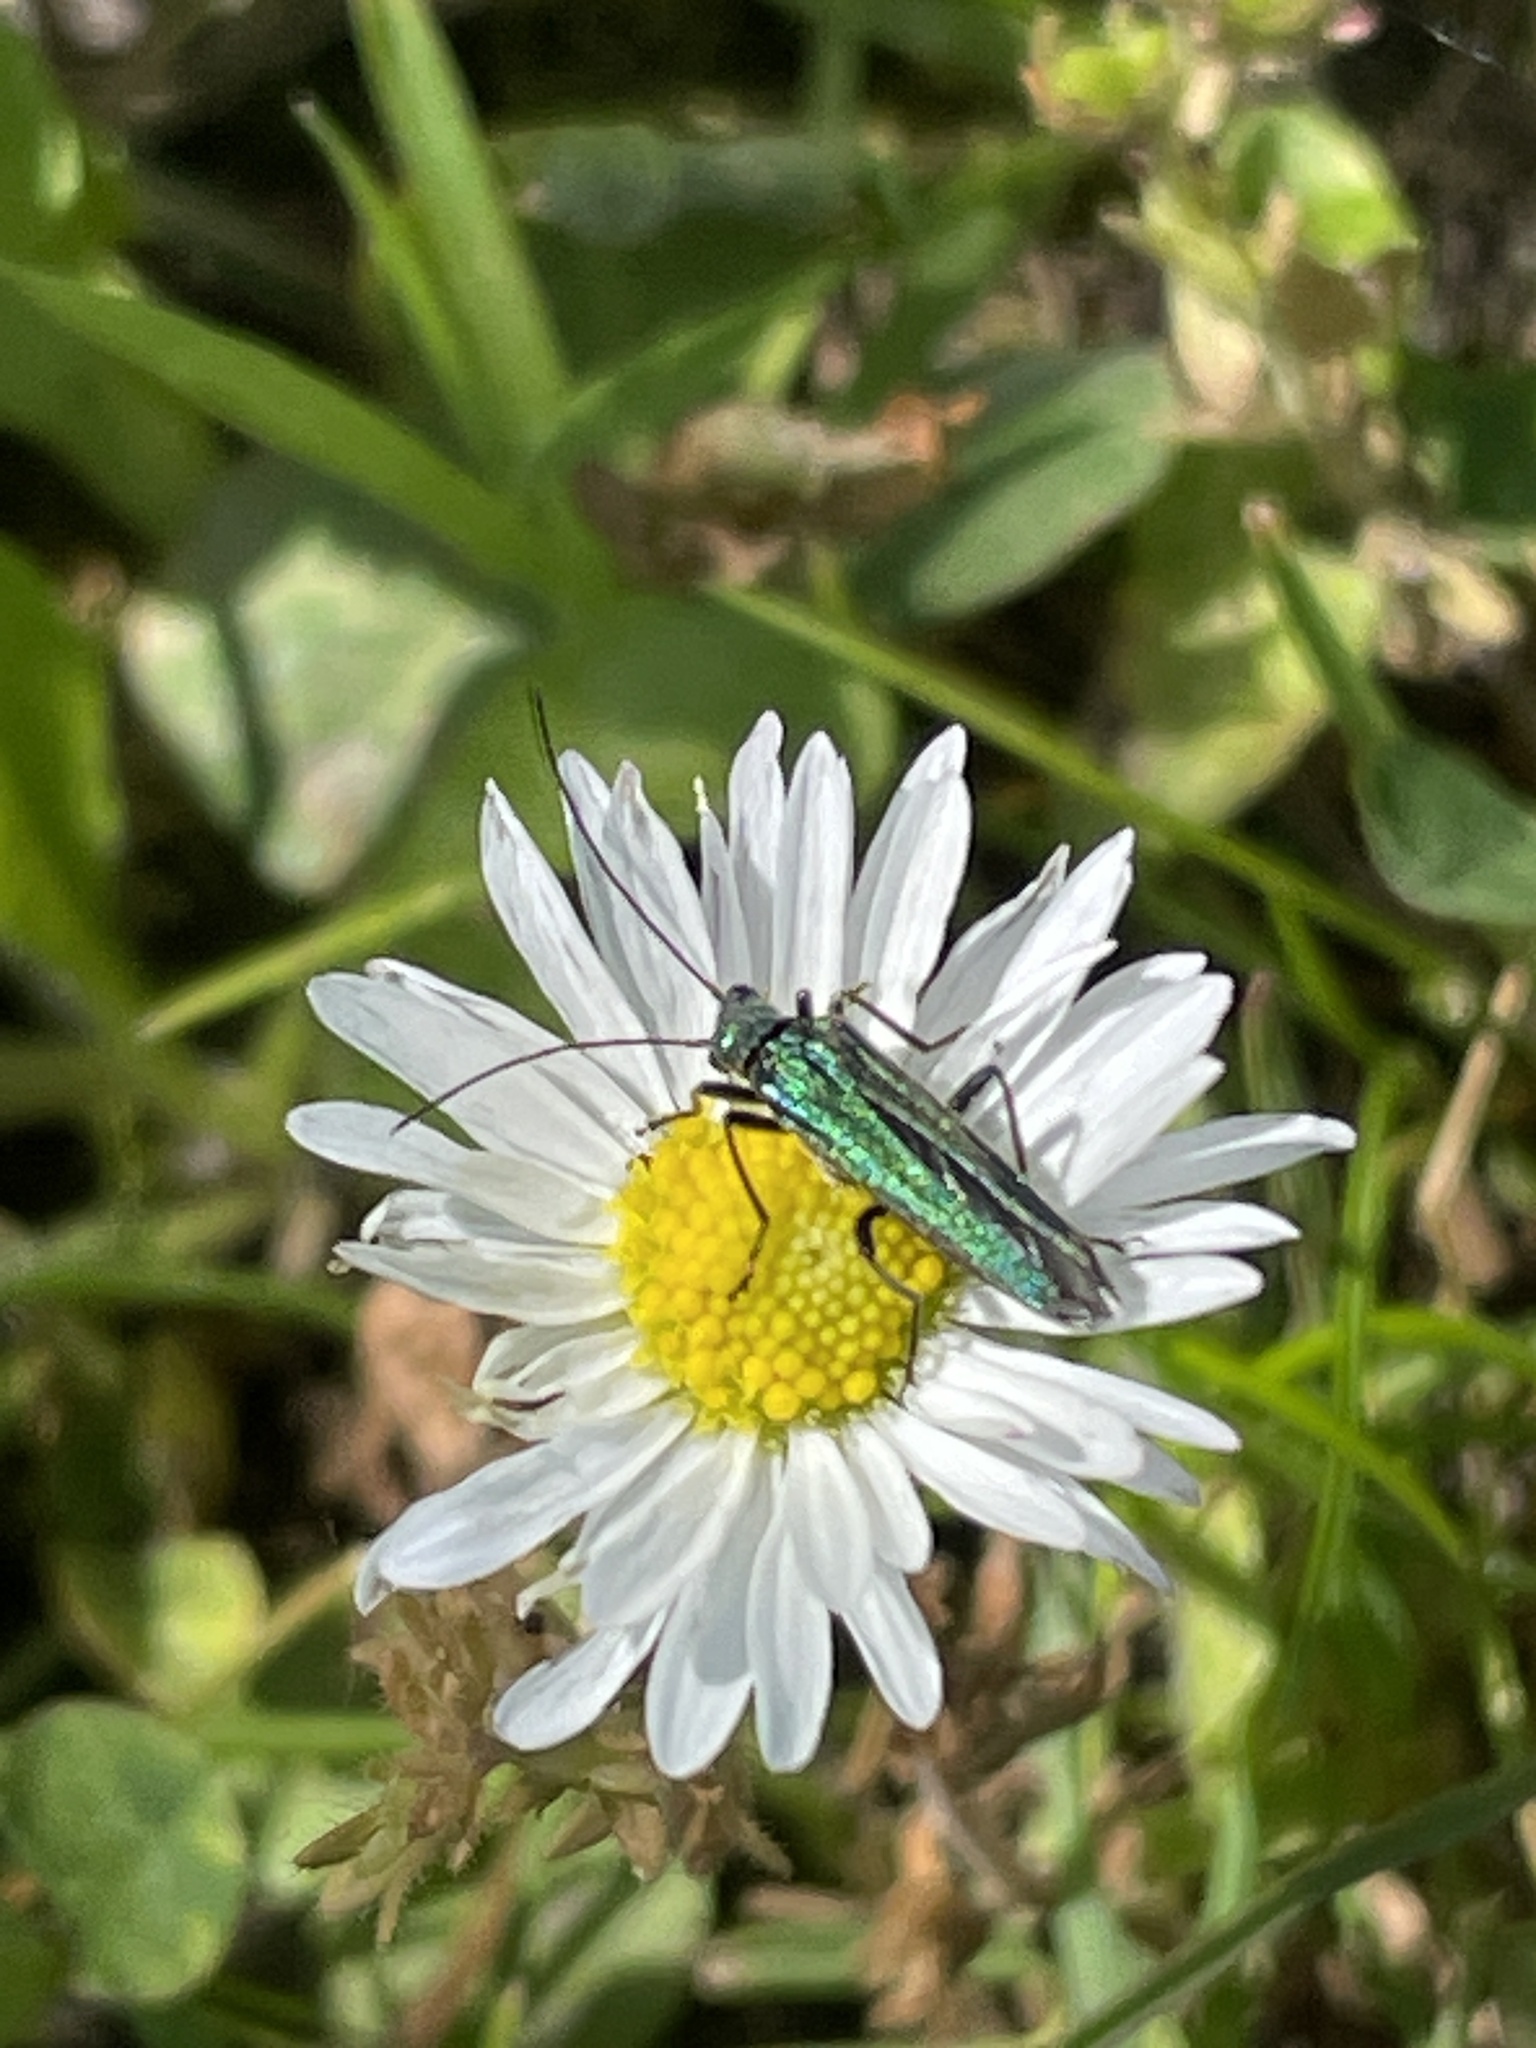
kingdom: Animalia
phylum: Arthropoda
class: Insecta
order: Coleoptera
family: Oedemeridae
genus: Oedemera
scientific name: Oedemera nobilis
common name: Swollen-thighed beetle
